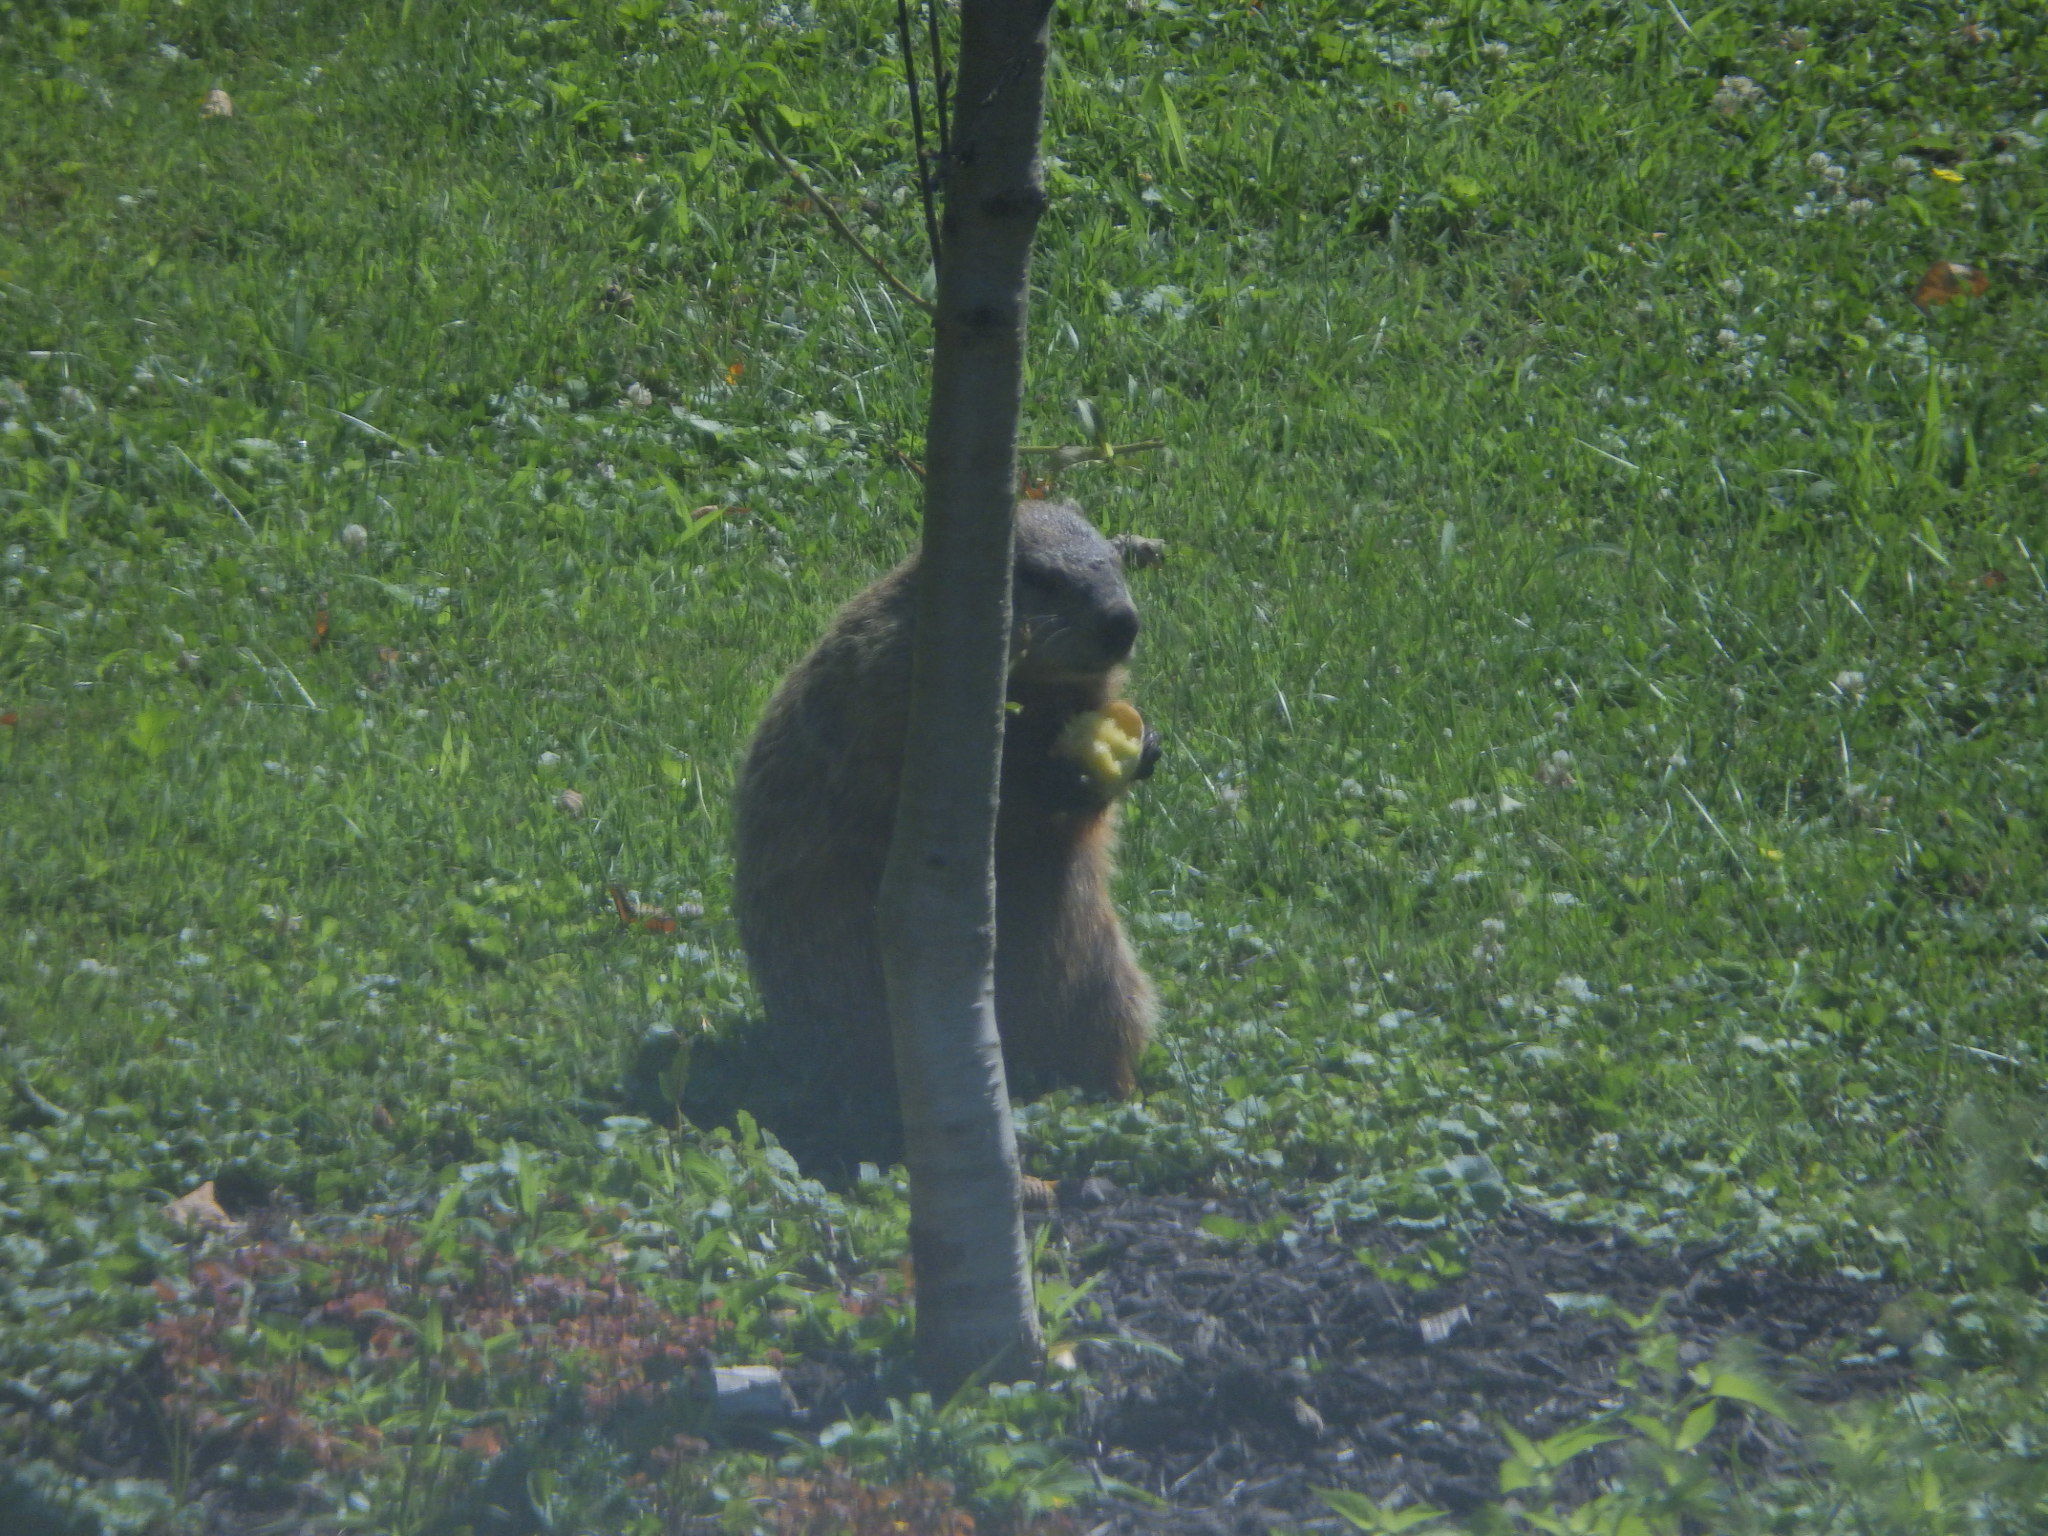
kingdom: Animalia
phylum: Chordata
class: Mammalia
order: Rodentia
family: Sciuridae
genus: Marmota
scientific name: Marmota monax
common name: Groundhog
